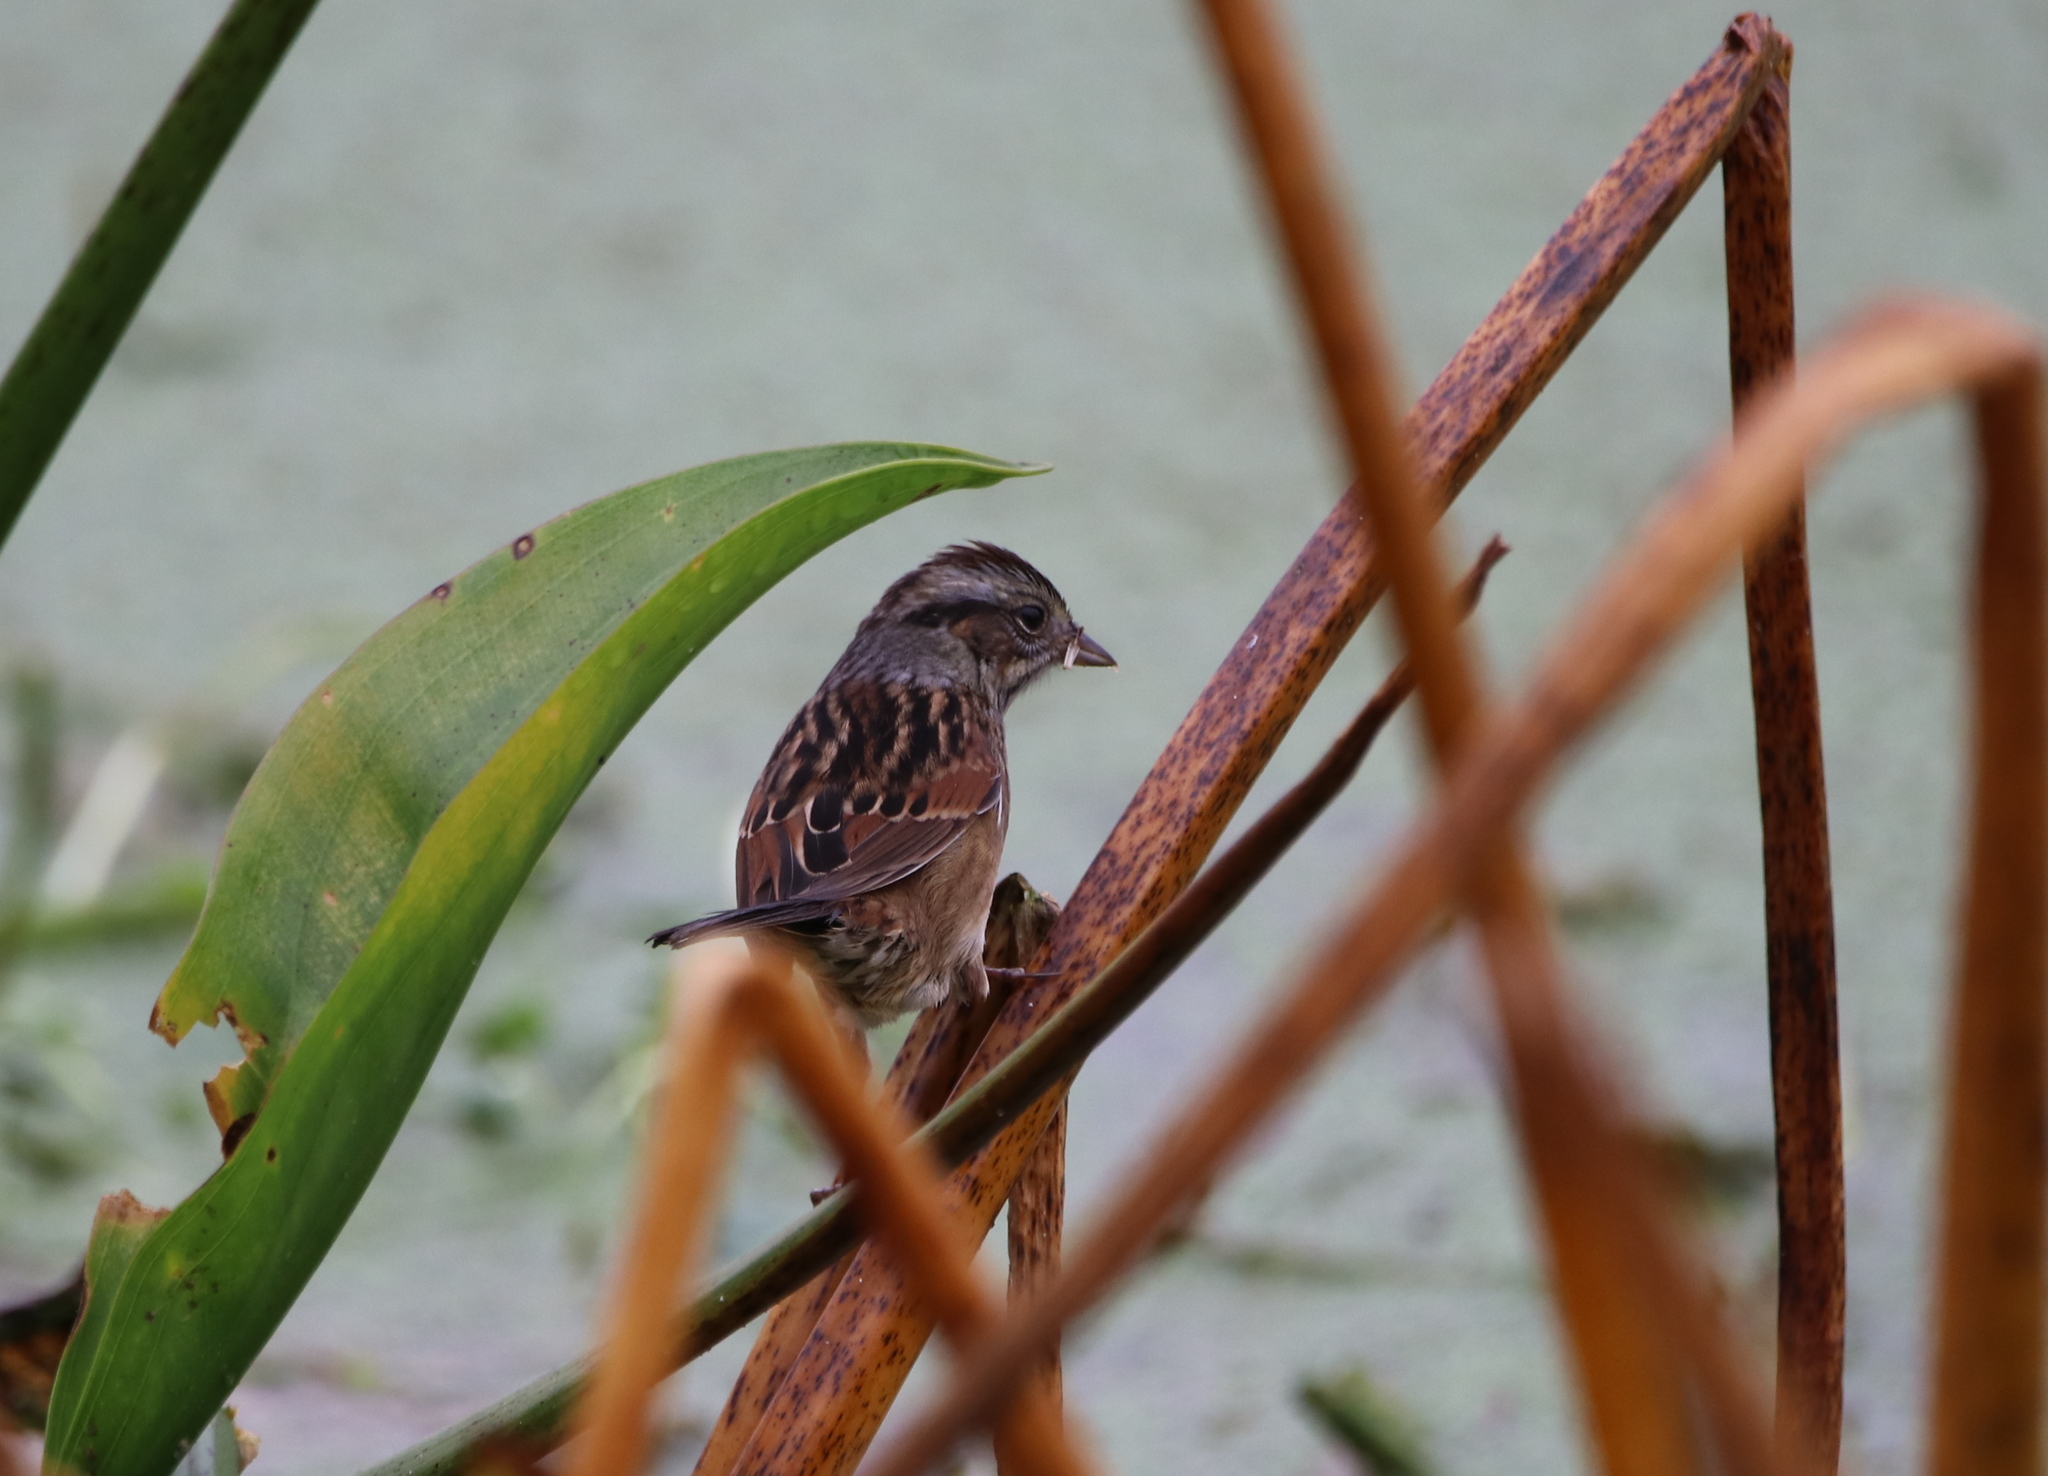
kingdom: Animalia
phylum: Chordata
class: Aves
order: Passeriformes
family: Passerellidae
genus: Melospiza
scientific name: Melospiza georgiana
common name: Swamp sparrow
